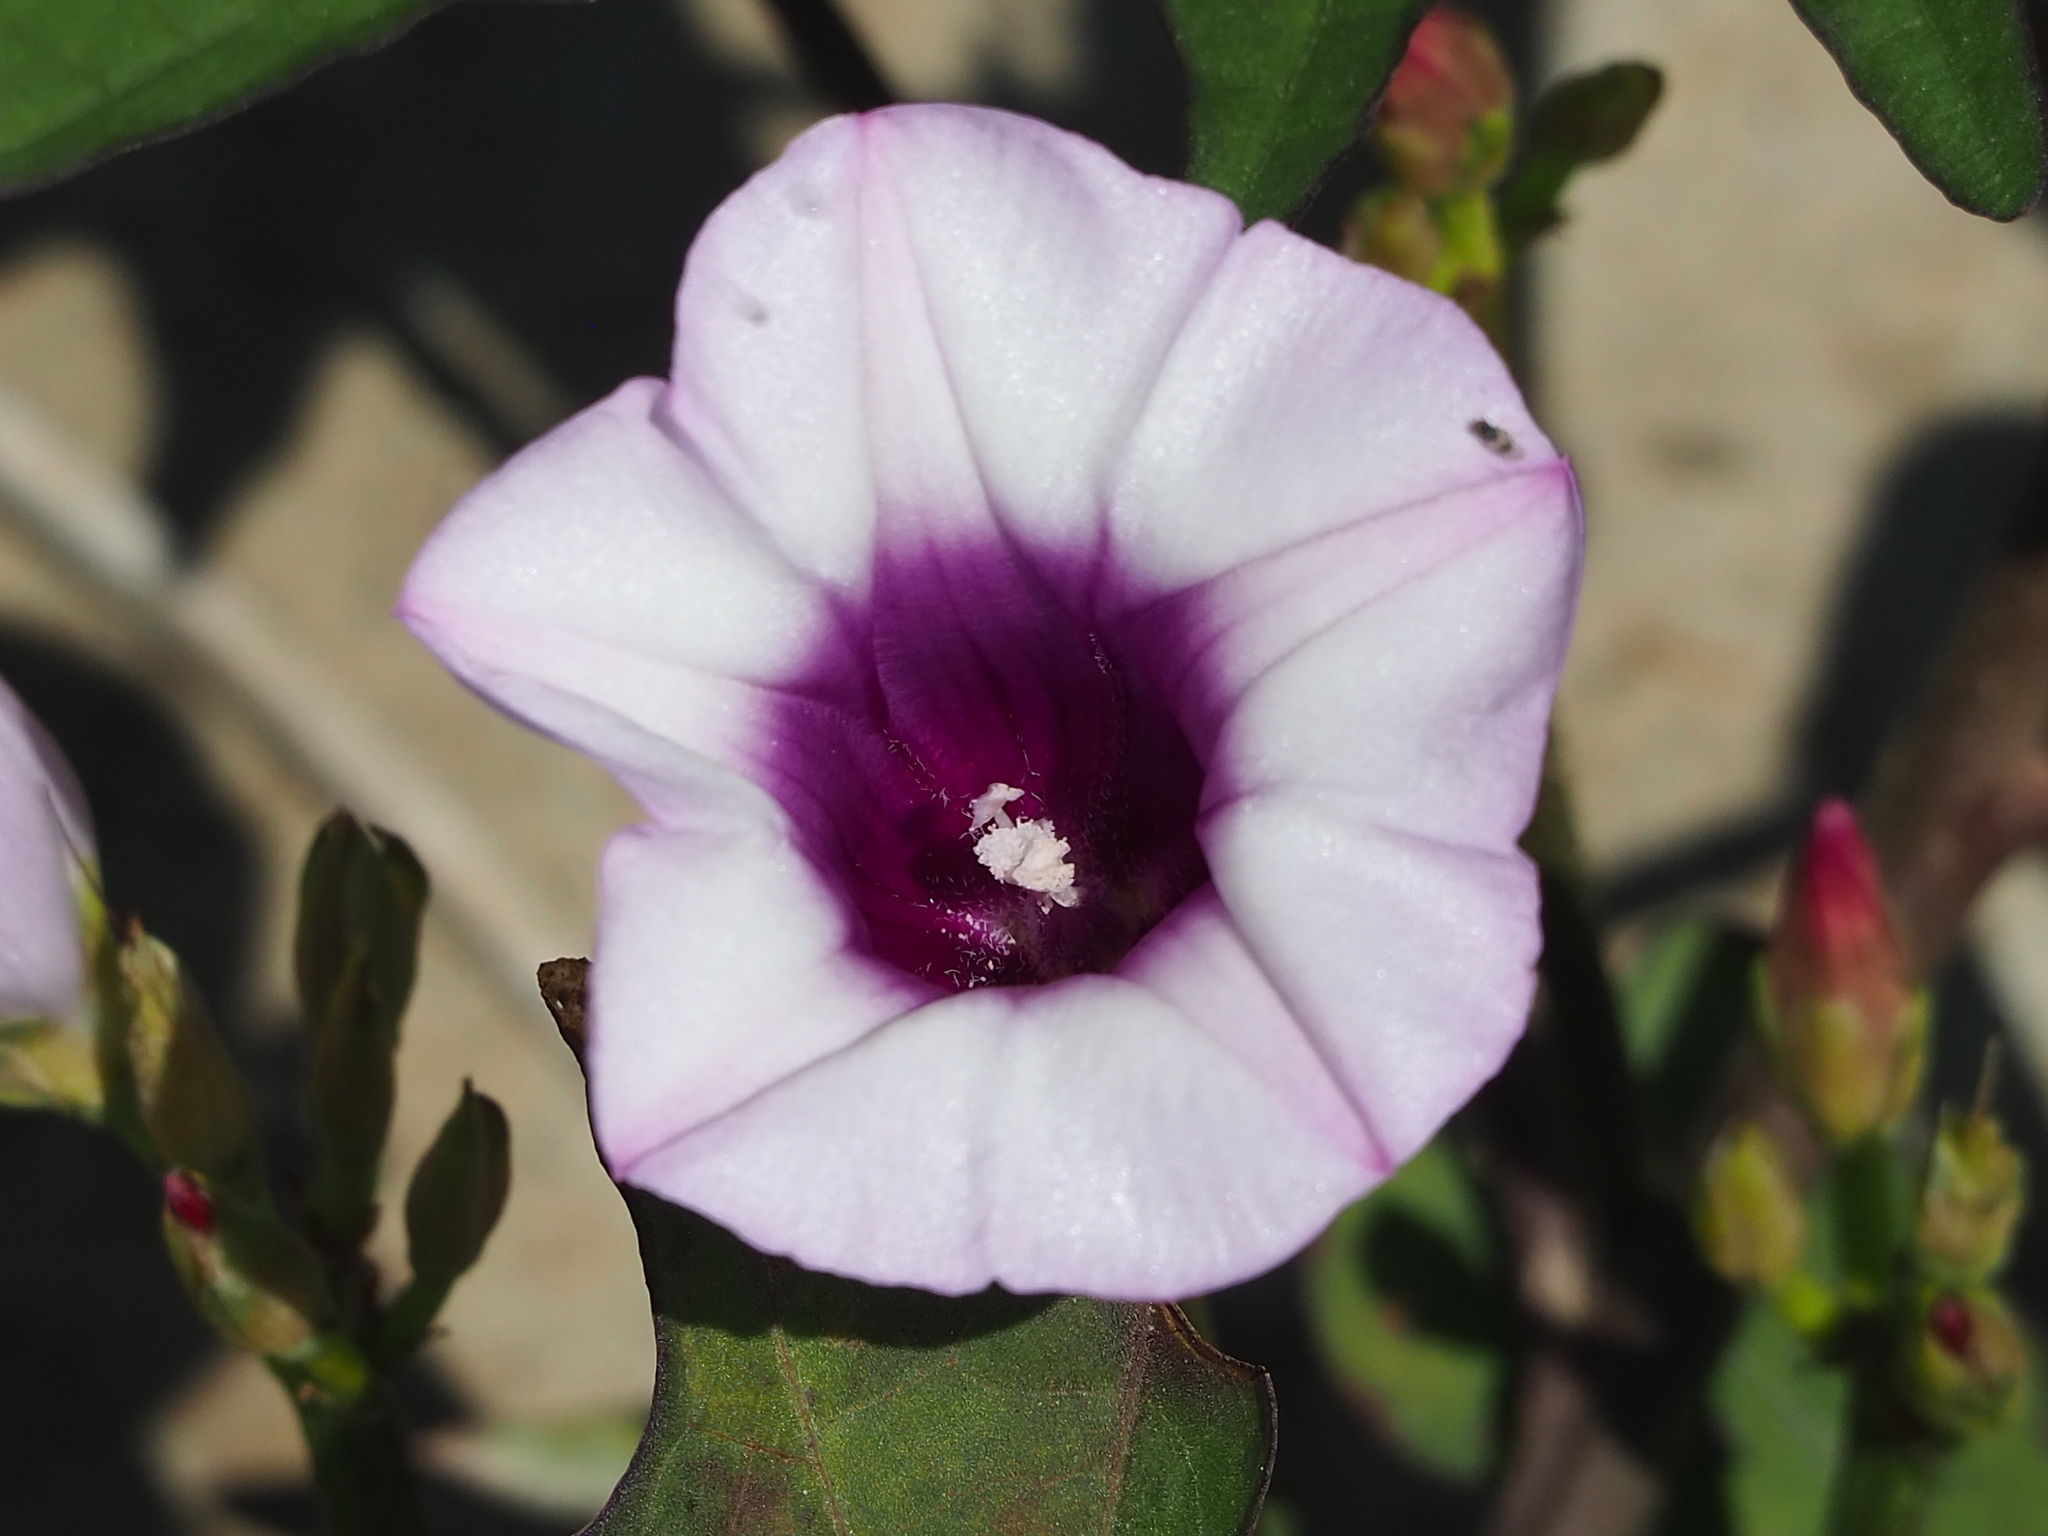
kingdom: Plantae
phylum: Tracheophyta
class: Magnoliopsida
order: Solanales
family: Convolvulaceae
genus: Ipomoea
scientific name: Ipomoea batatas
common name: Sweet-potato
